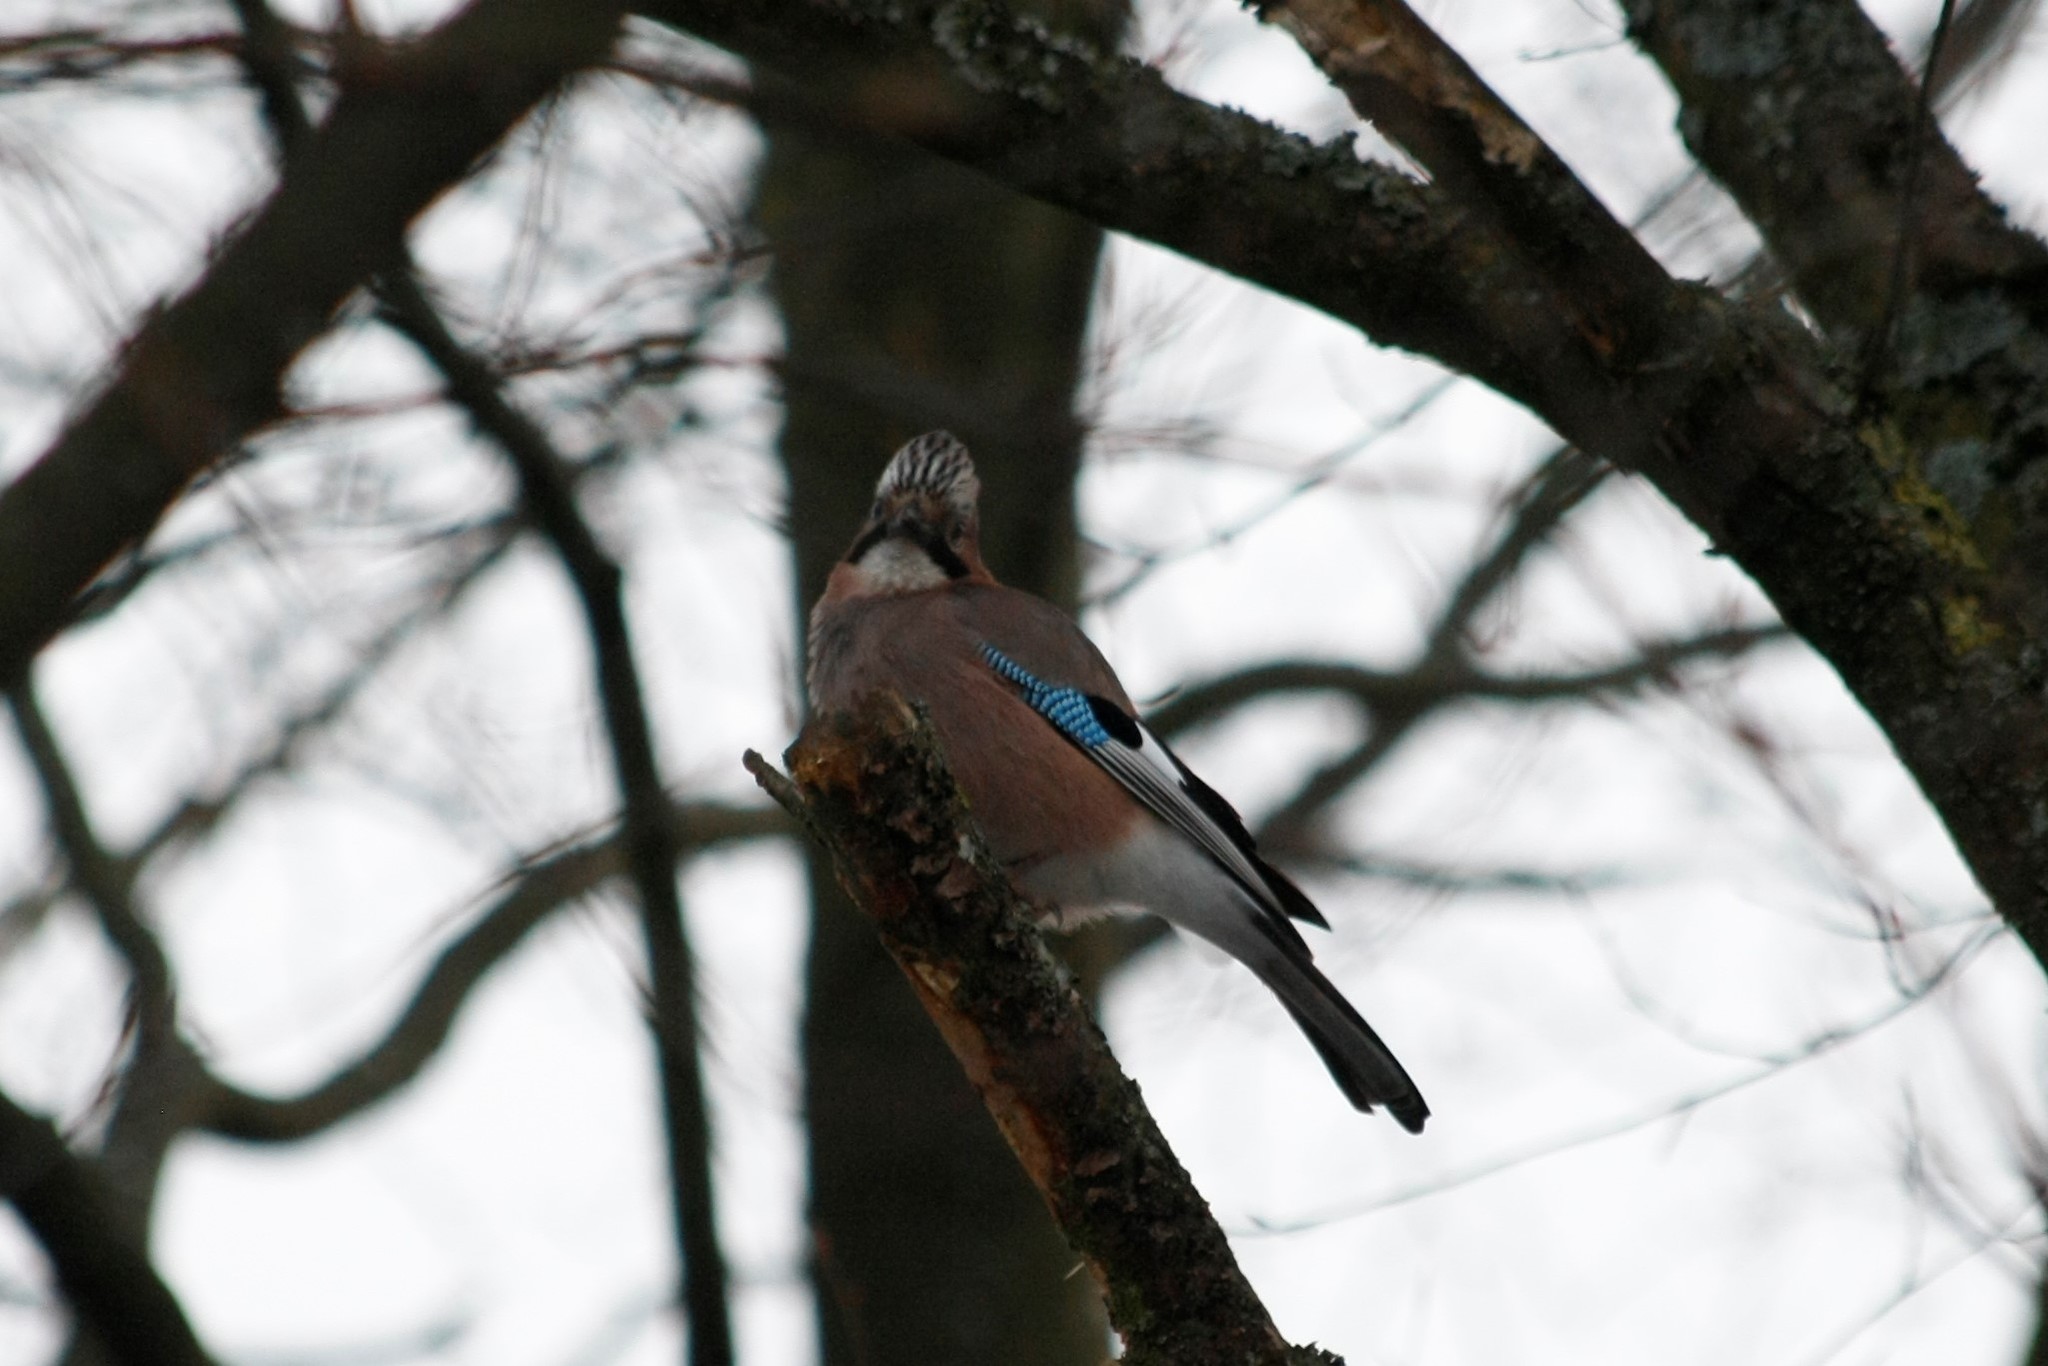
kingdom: Animalia
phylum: Chordata
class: Aves
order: Passeriformes
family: Corvidae
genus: Garrulus
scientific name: Garrulus glandarius
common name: Eurasian jay
